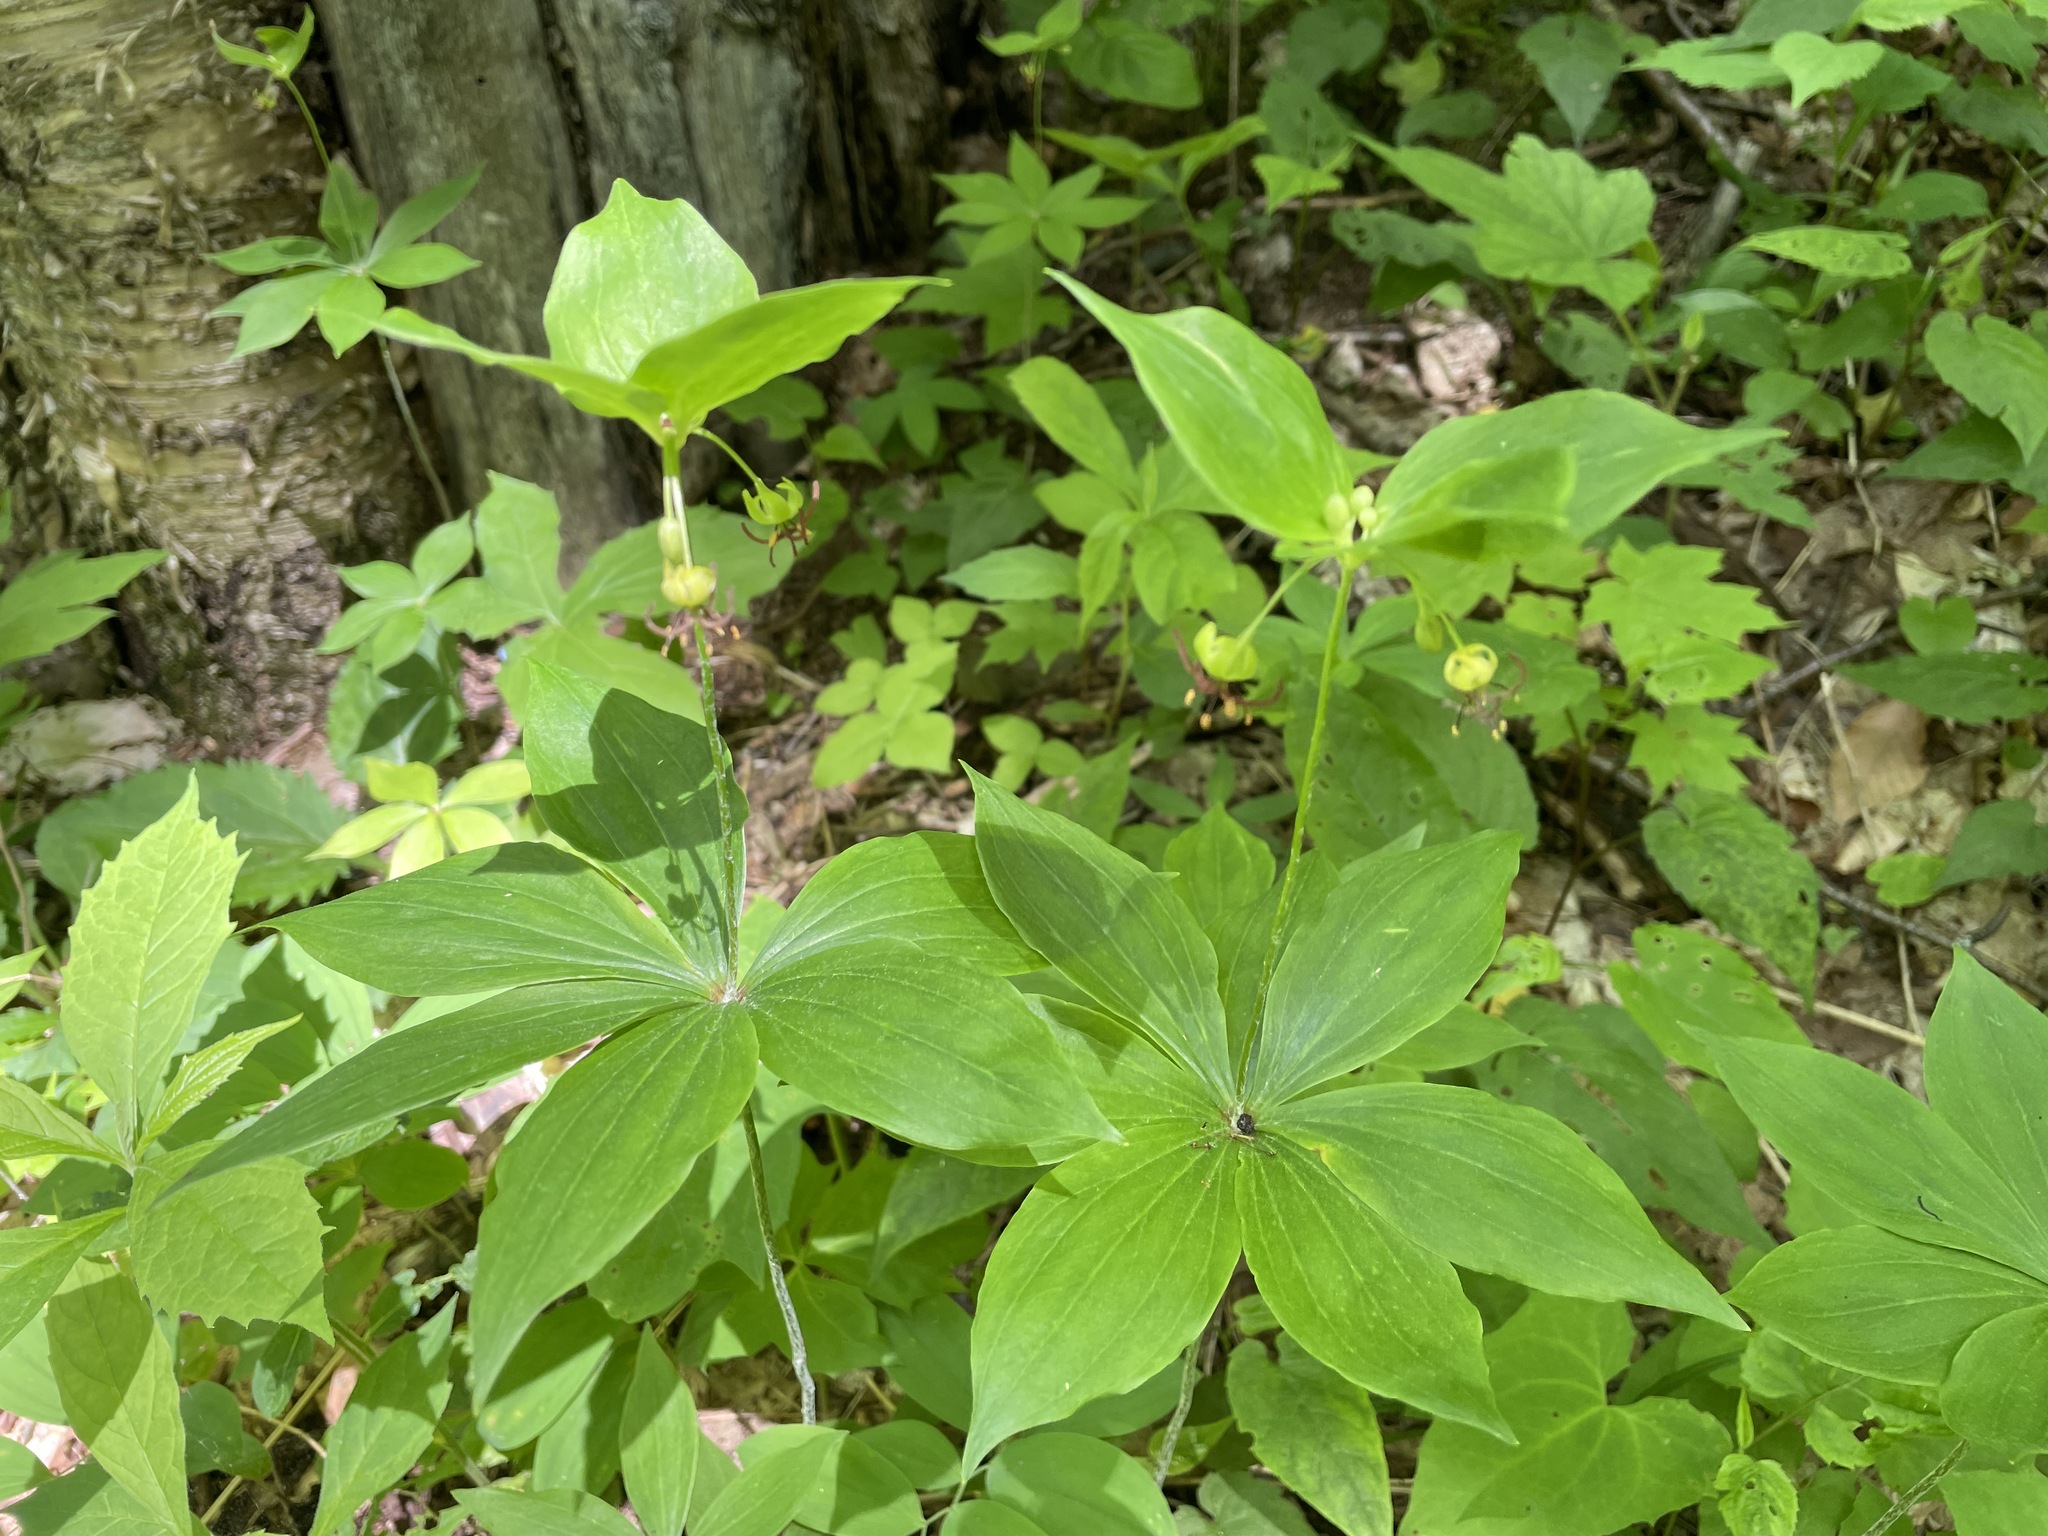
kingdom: Plantae
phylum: Tracheophyta
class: Liliopsida
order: Liliales
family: Liliaceae
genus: Medeola
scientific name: Medeola virginiana
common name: Indian cucumber-root
